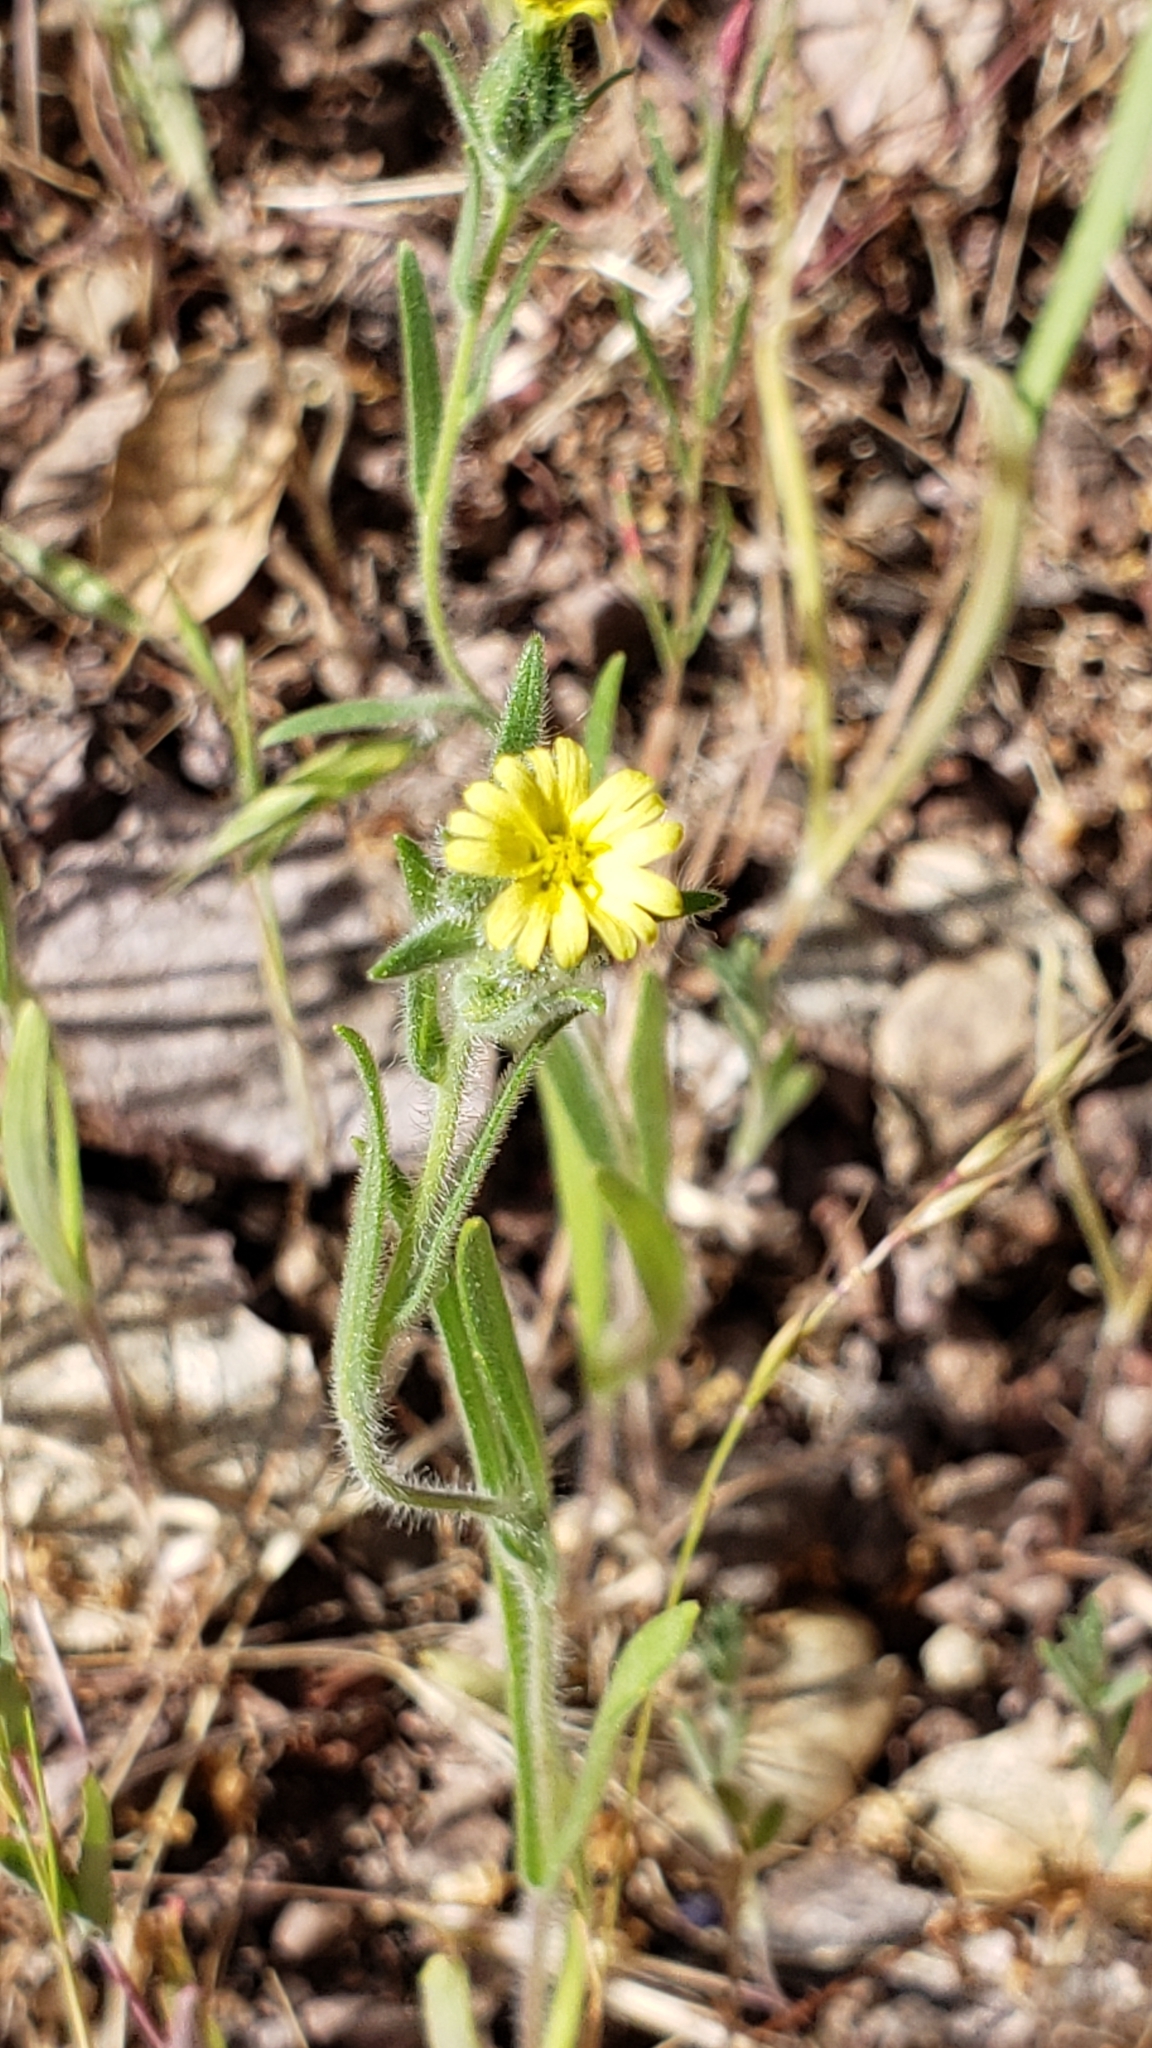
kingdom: Plantae
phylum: Tracheophyta
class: Magnoliopsida
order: Asterales
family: Asteraceae
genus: Madia
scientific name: Madia gracilis
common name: Grassy tarweed
